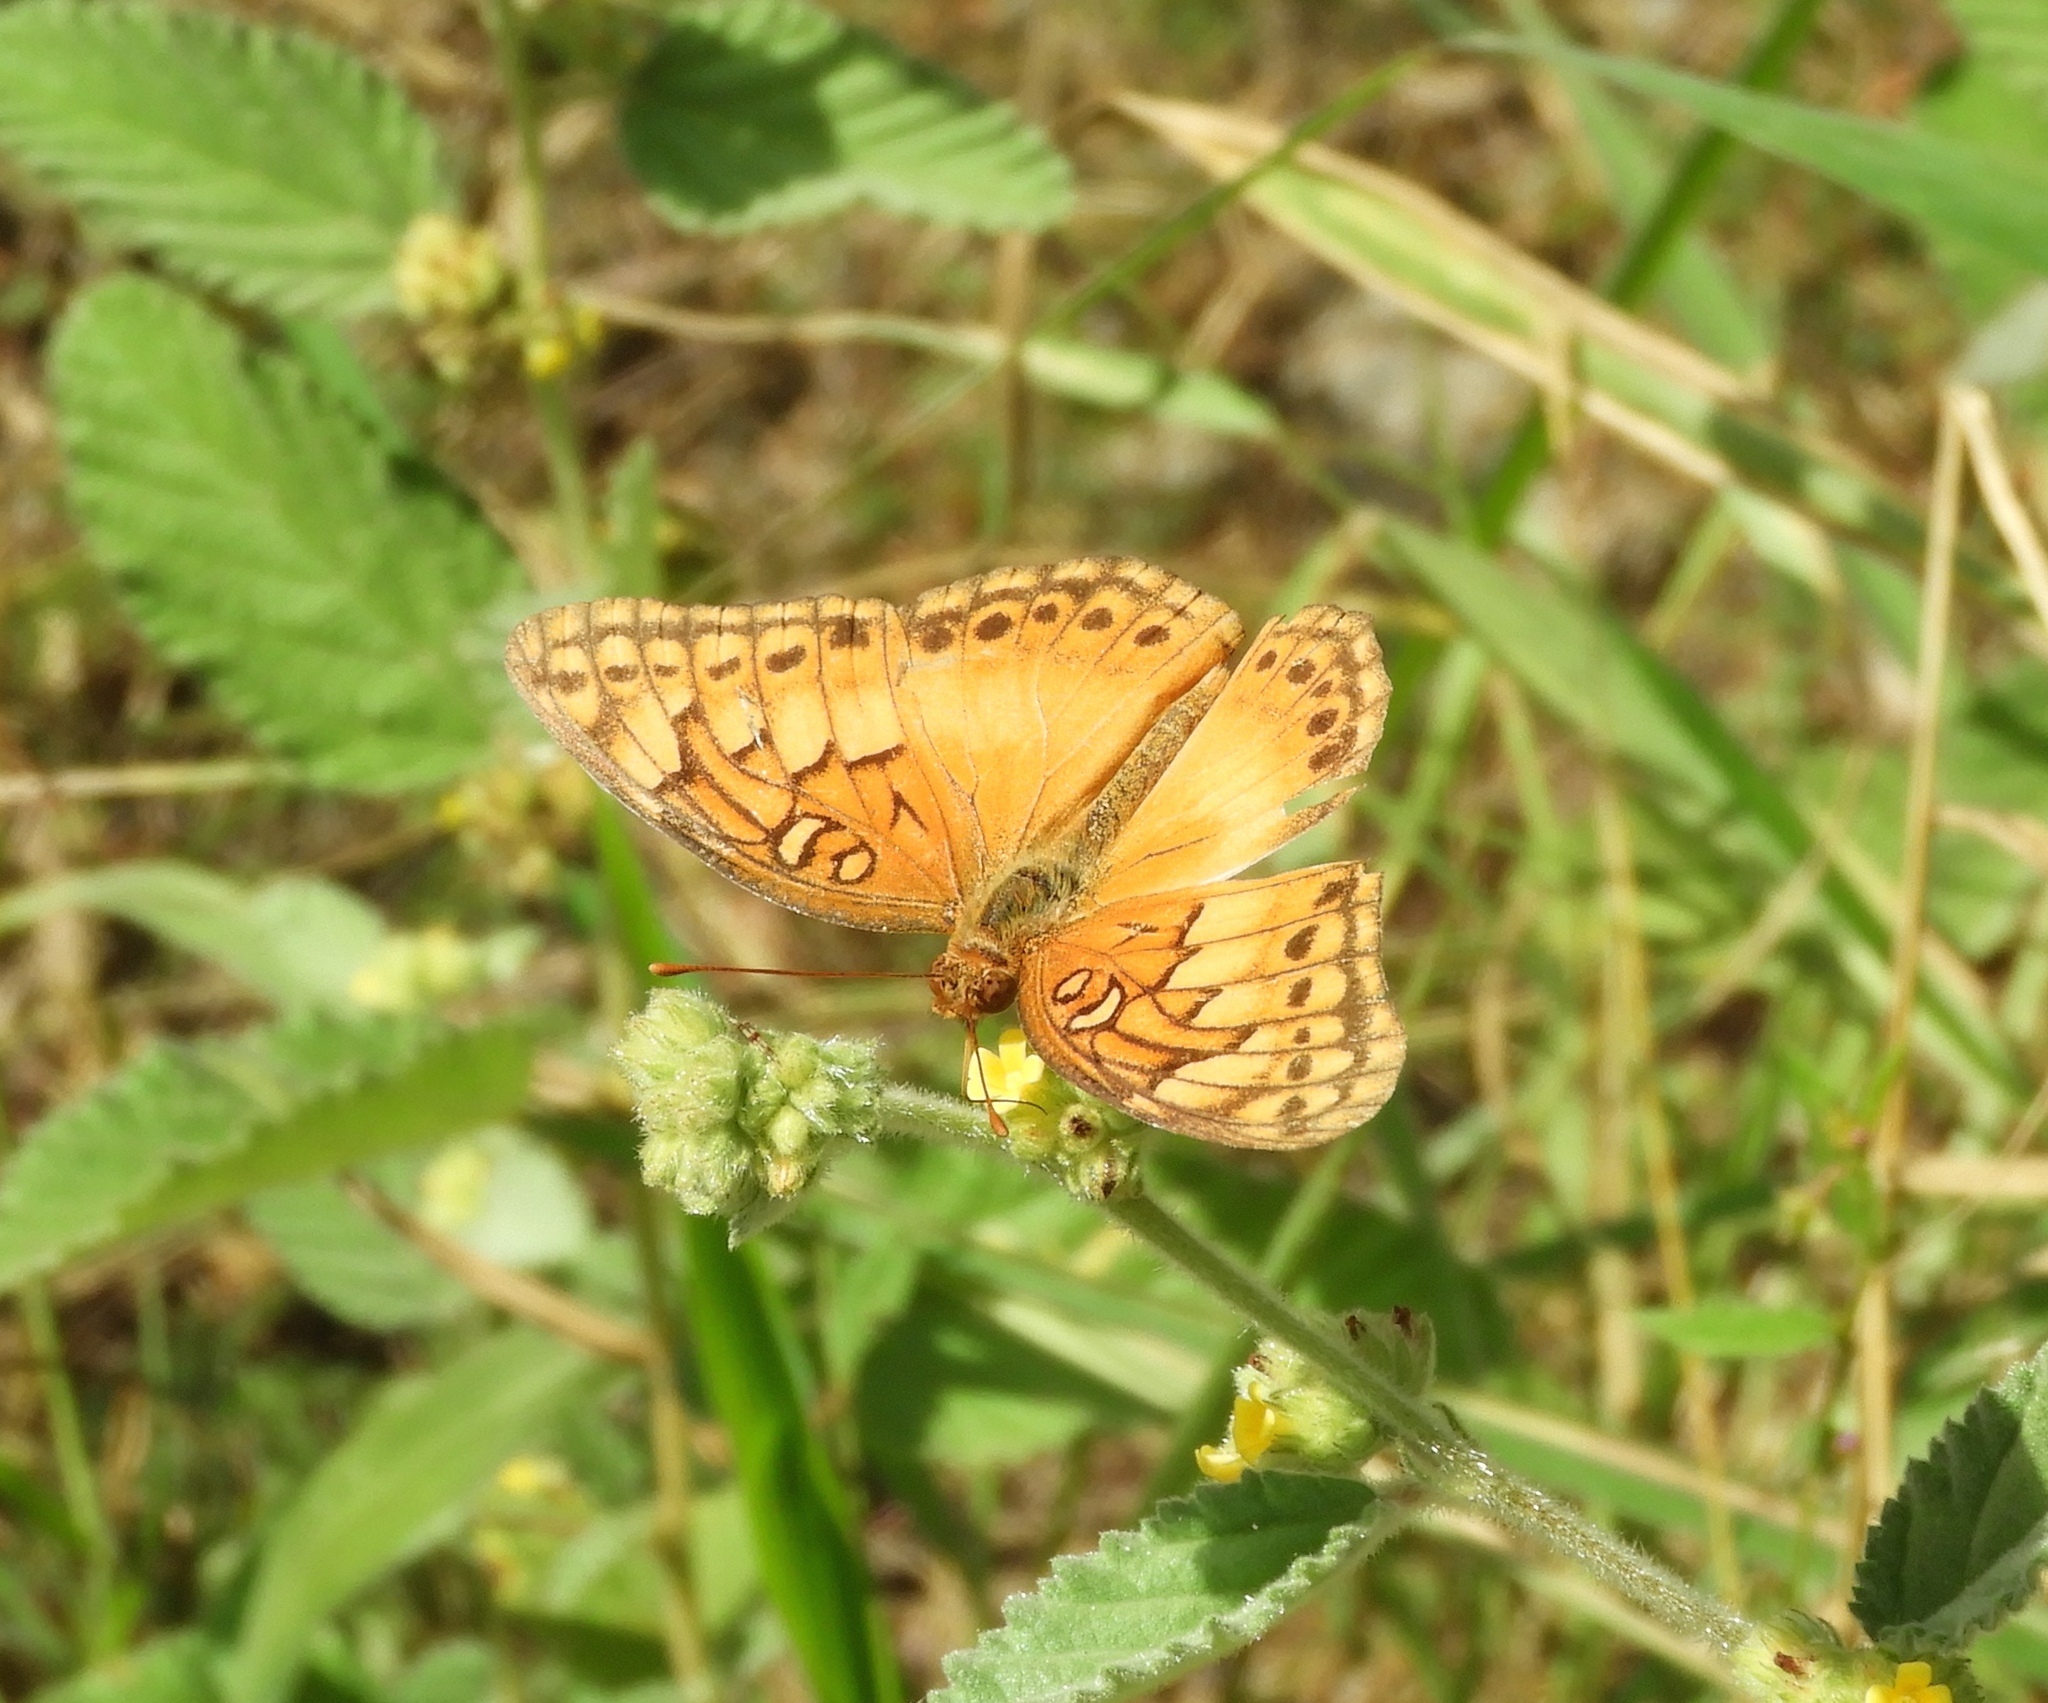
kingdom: Animalia
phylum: Arthropoda
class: Insecta
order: Lepidoptera
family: Nymphalidae
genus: Euptoieta
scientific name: Euptoieta hegesia
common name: Mexican fritillary
